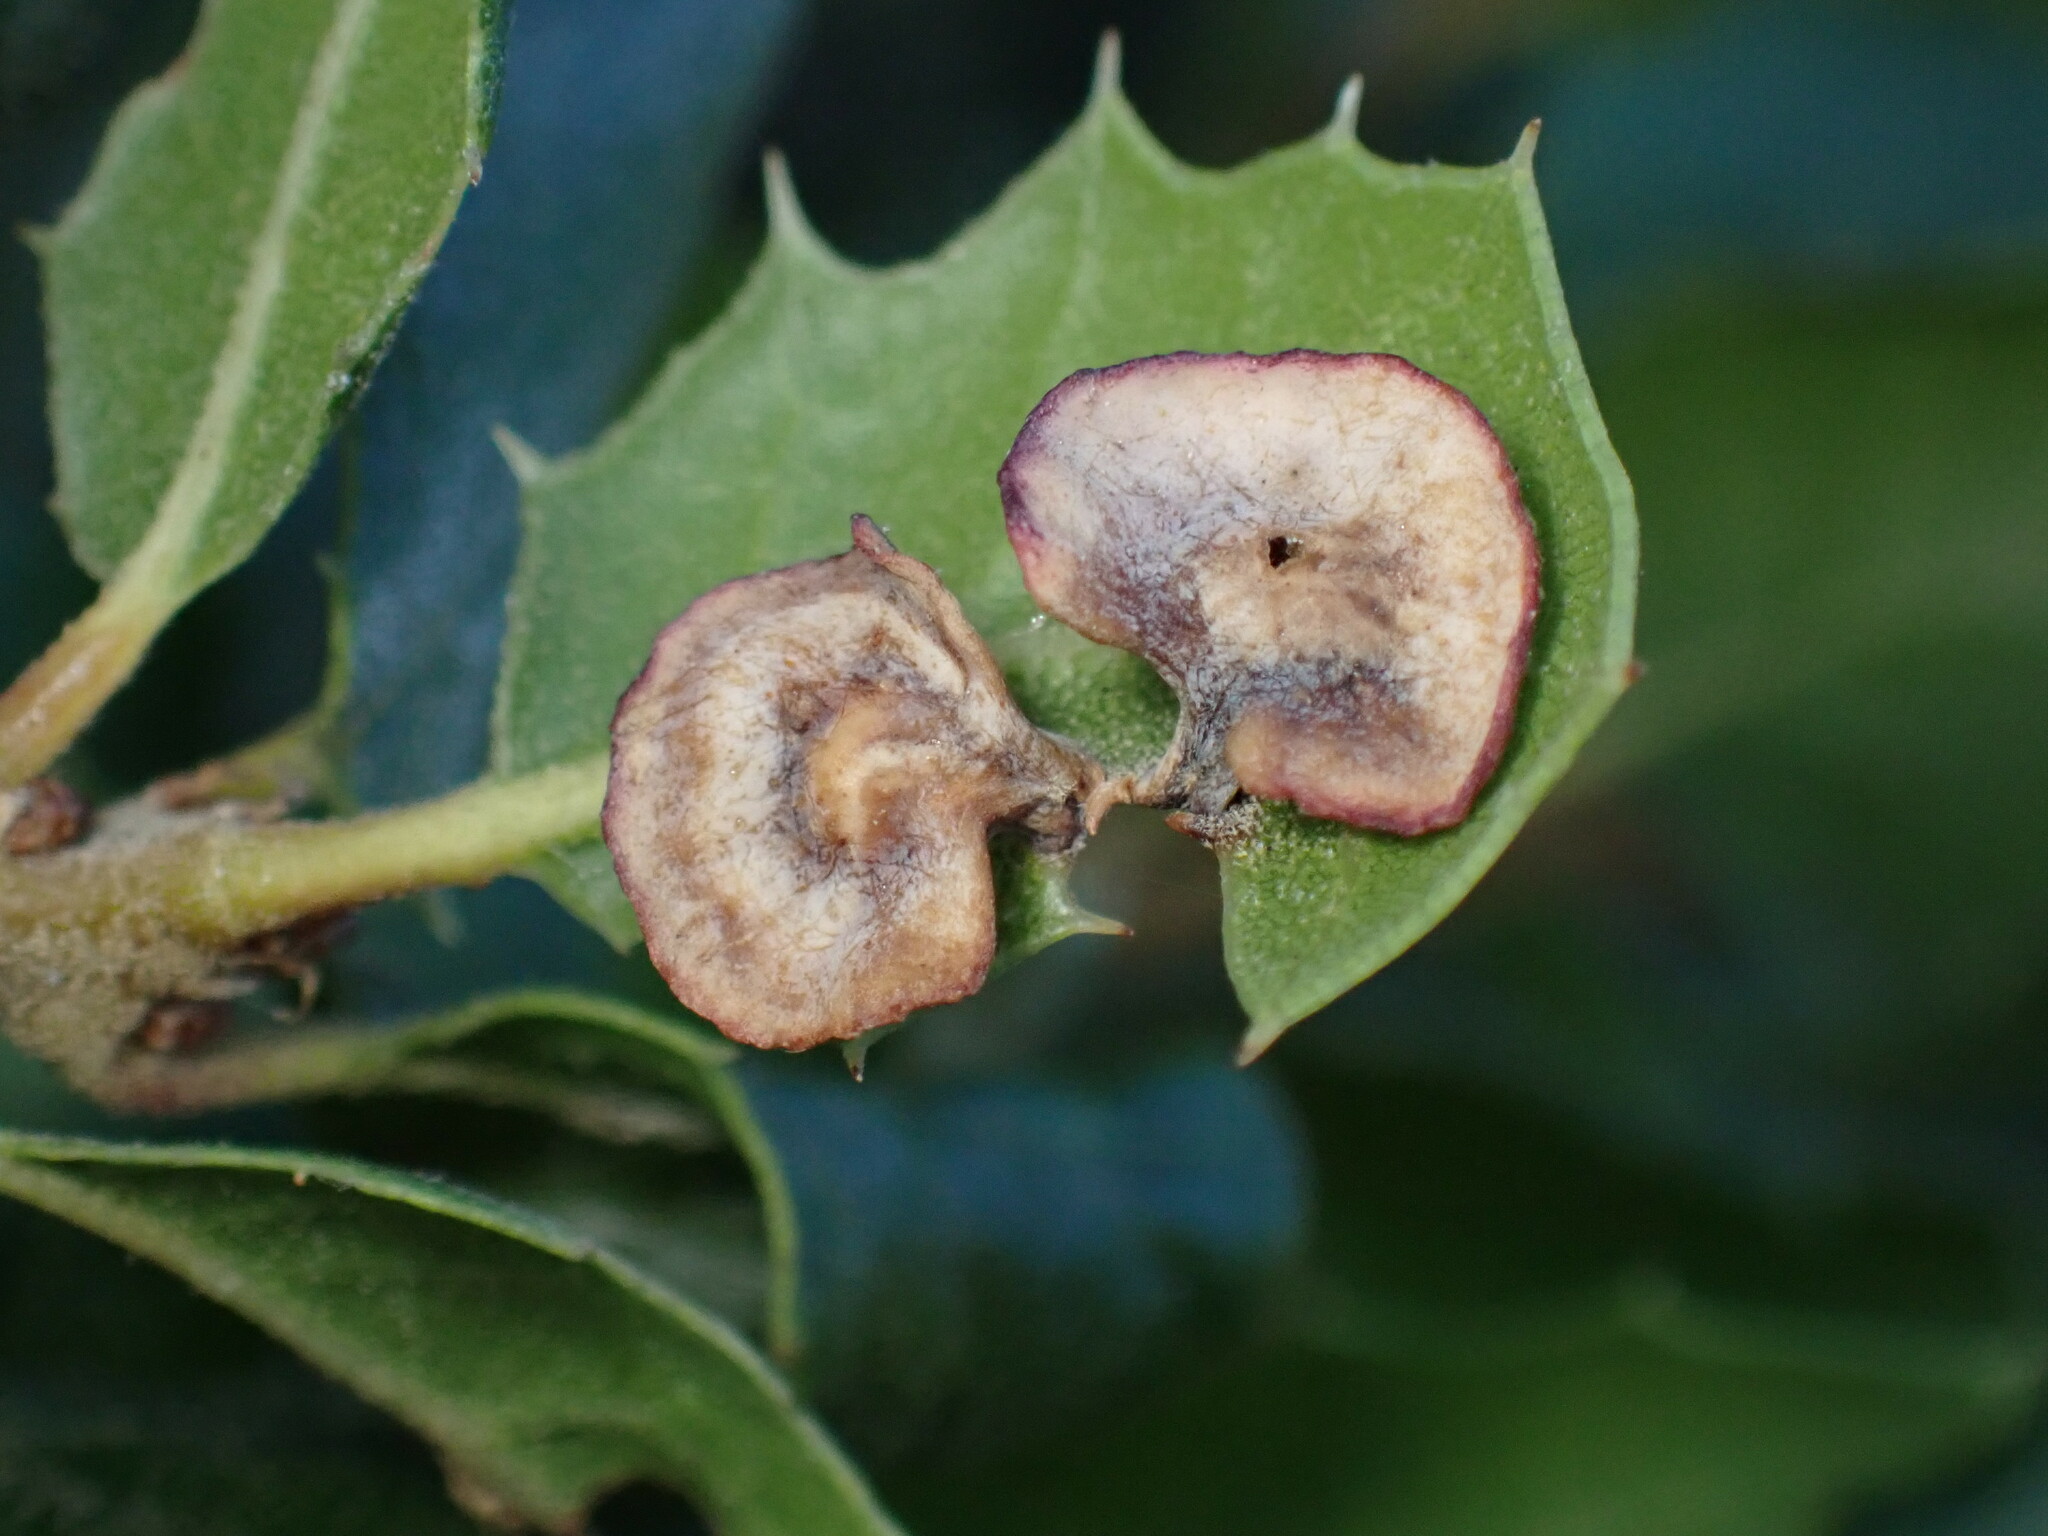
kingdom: Animalia
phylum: Arthropoda
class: Insecta
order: Hymenoptera
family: Cynipidae
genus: Amphibolips
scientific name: Amphibolips quercuspomiformis
